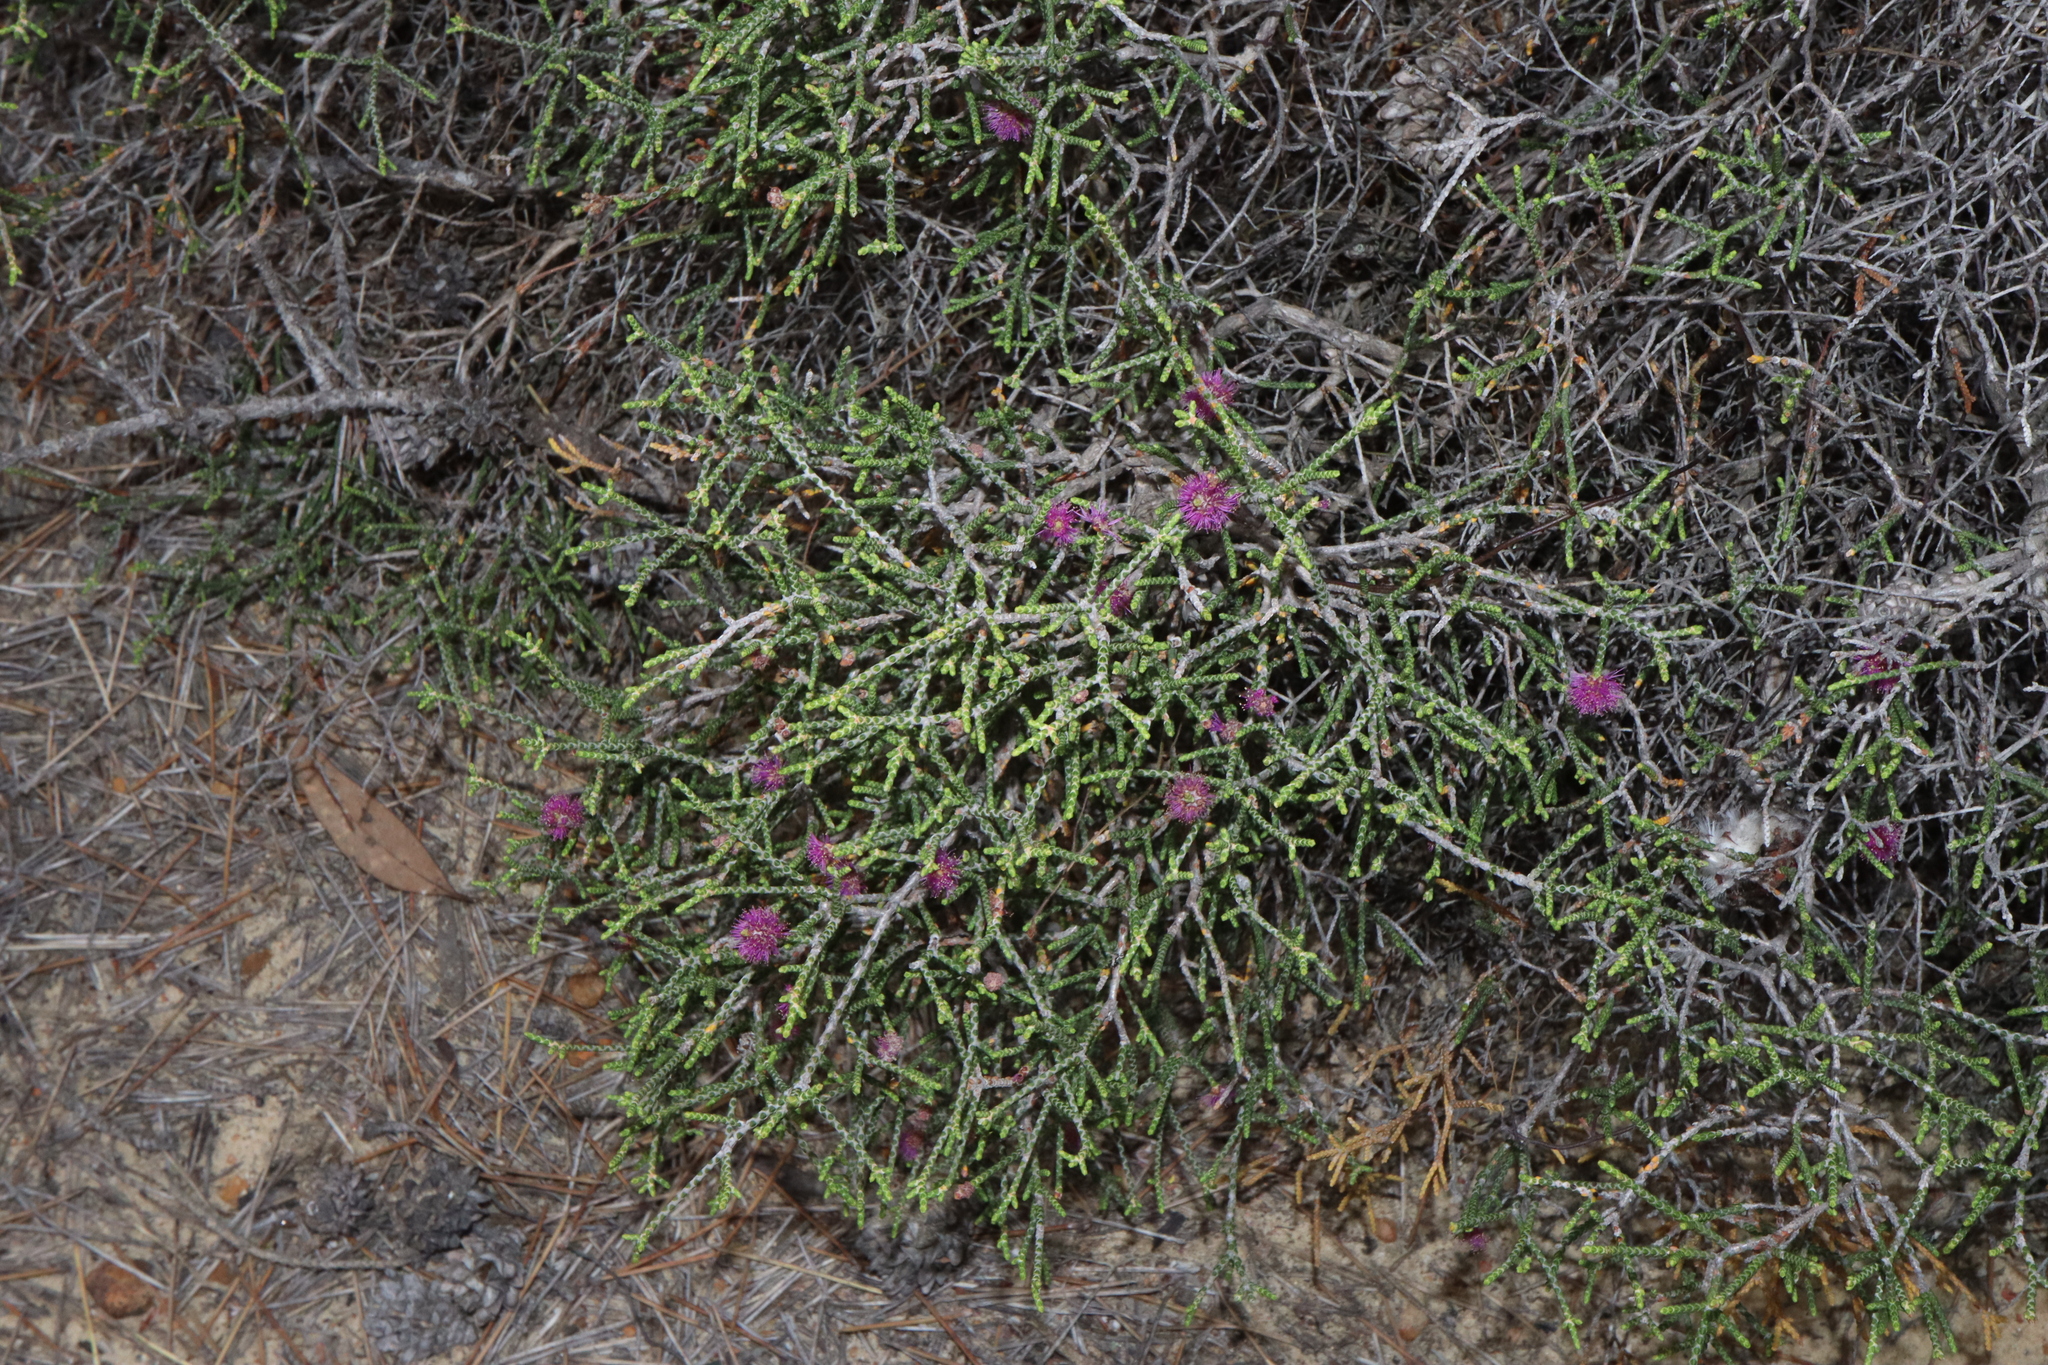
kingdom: Plantae
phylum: Tracheophyta
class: Magnoliopsida
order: Myrtales
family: Myrtaceae
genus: Melaleuca
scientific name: Melaleuca micrantha
